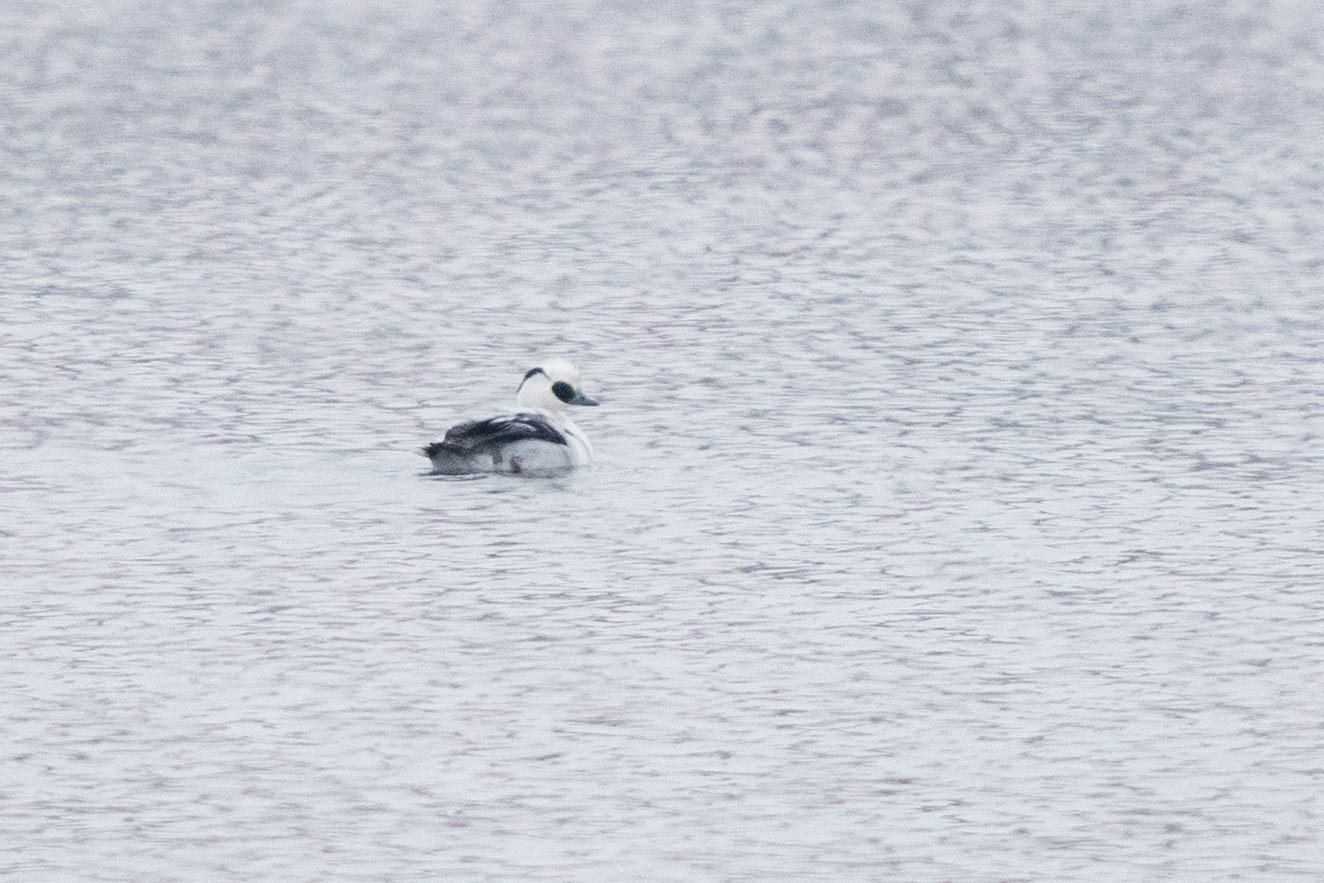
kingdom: Animalia
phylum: Chordata
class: Aves
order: Anseriformes
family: Anatidae
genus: Mergellus
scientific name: Mergellus albellus
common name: Smew
